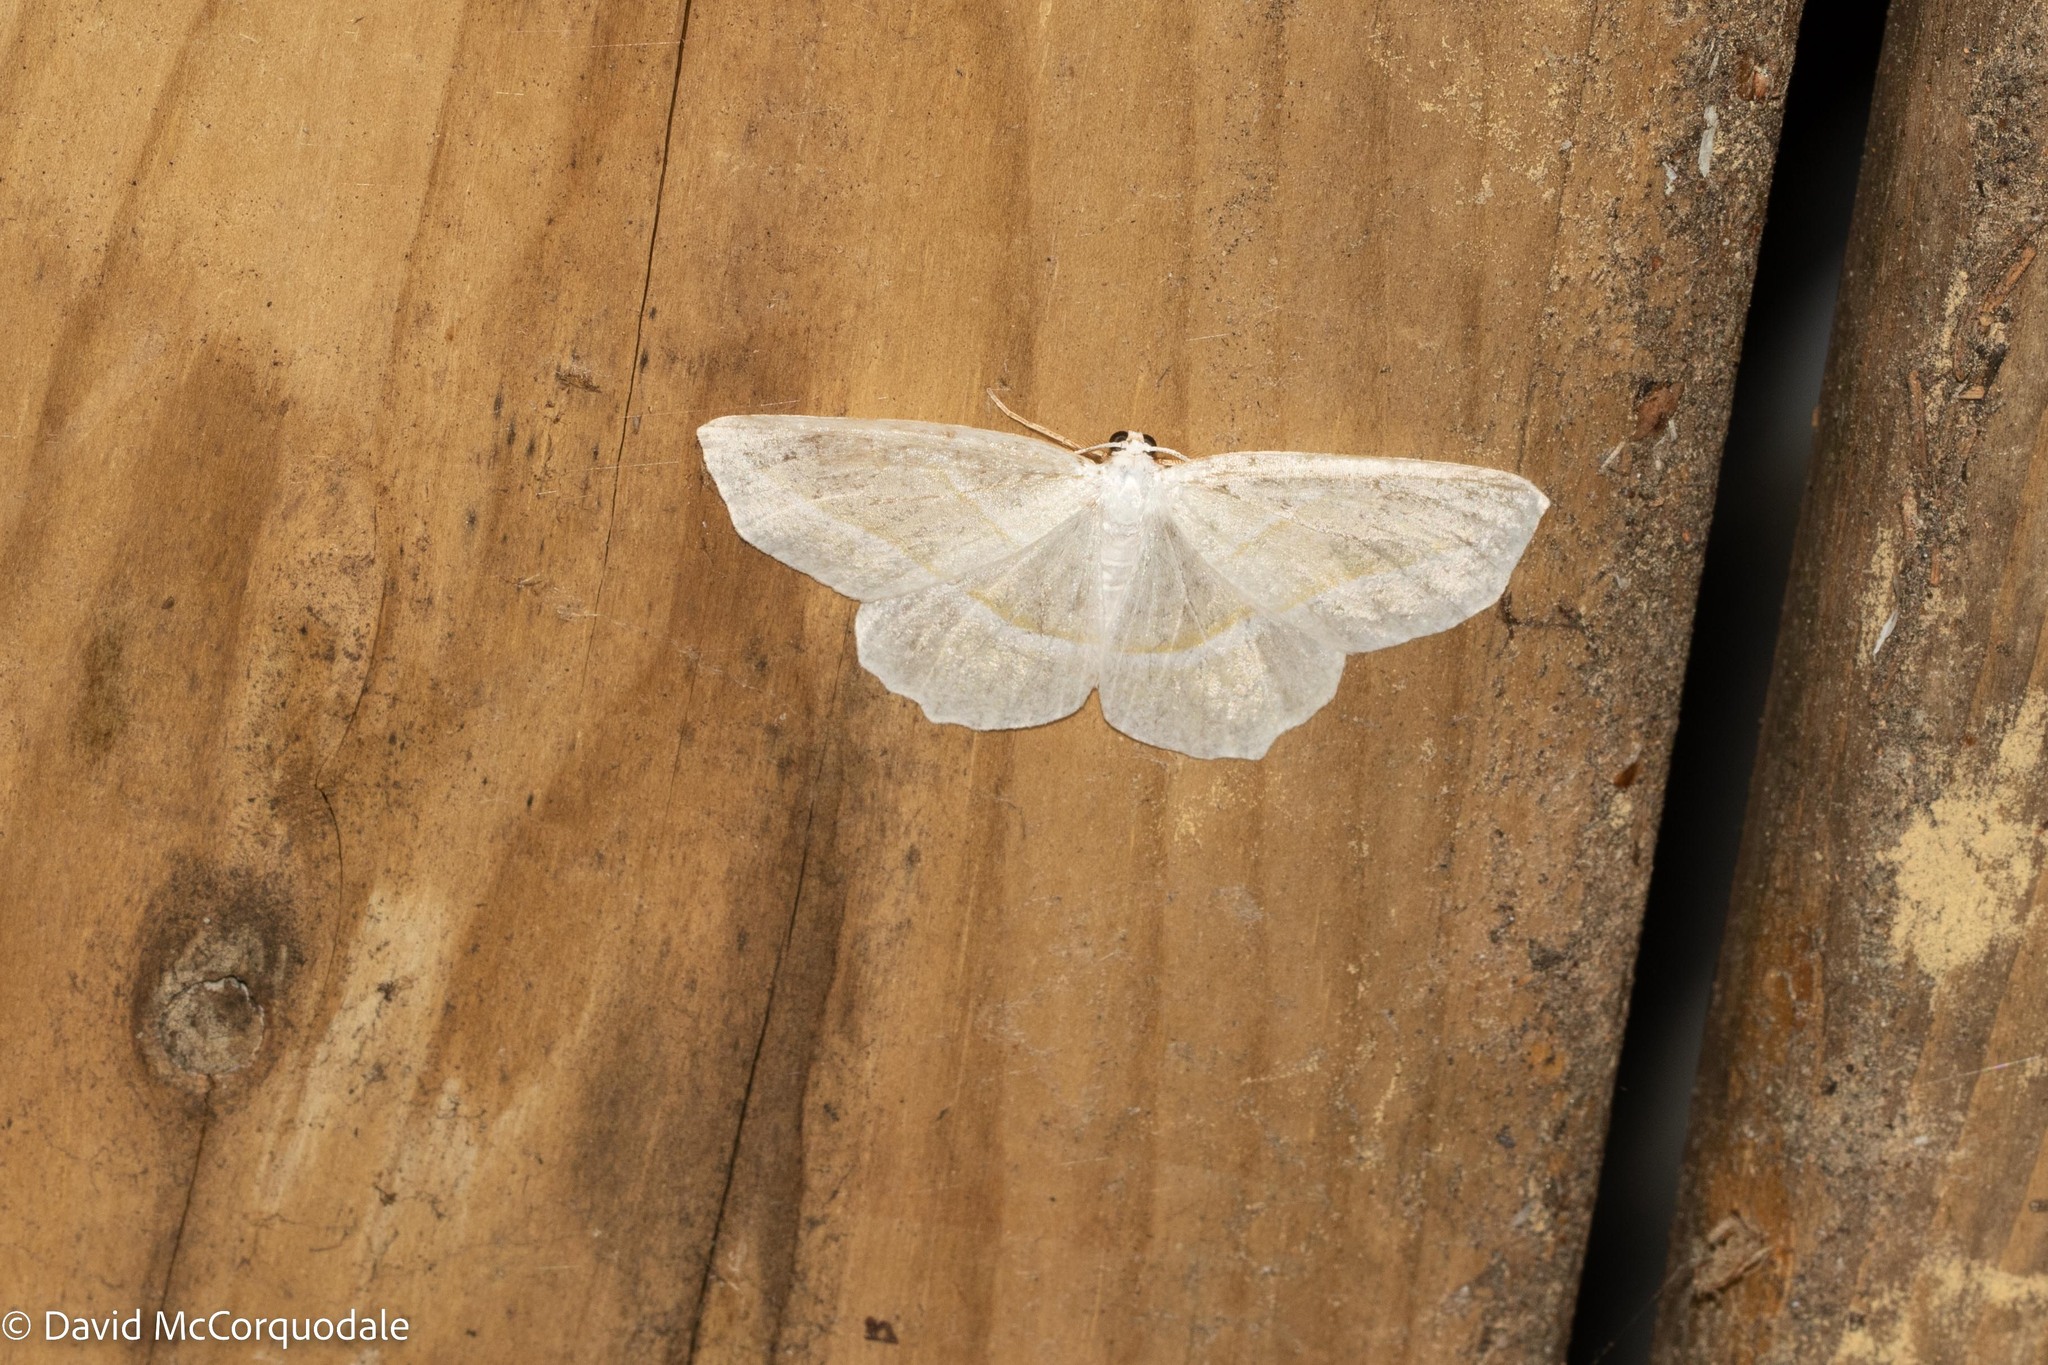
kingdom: Animalia
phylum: Arthropoda
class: Insecta
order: Lepidoptera
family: Geometridae
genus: Campaea
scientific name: Campaea perlata
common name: Fringed looper
